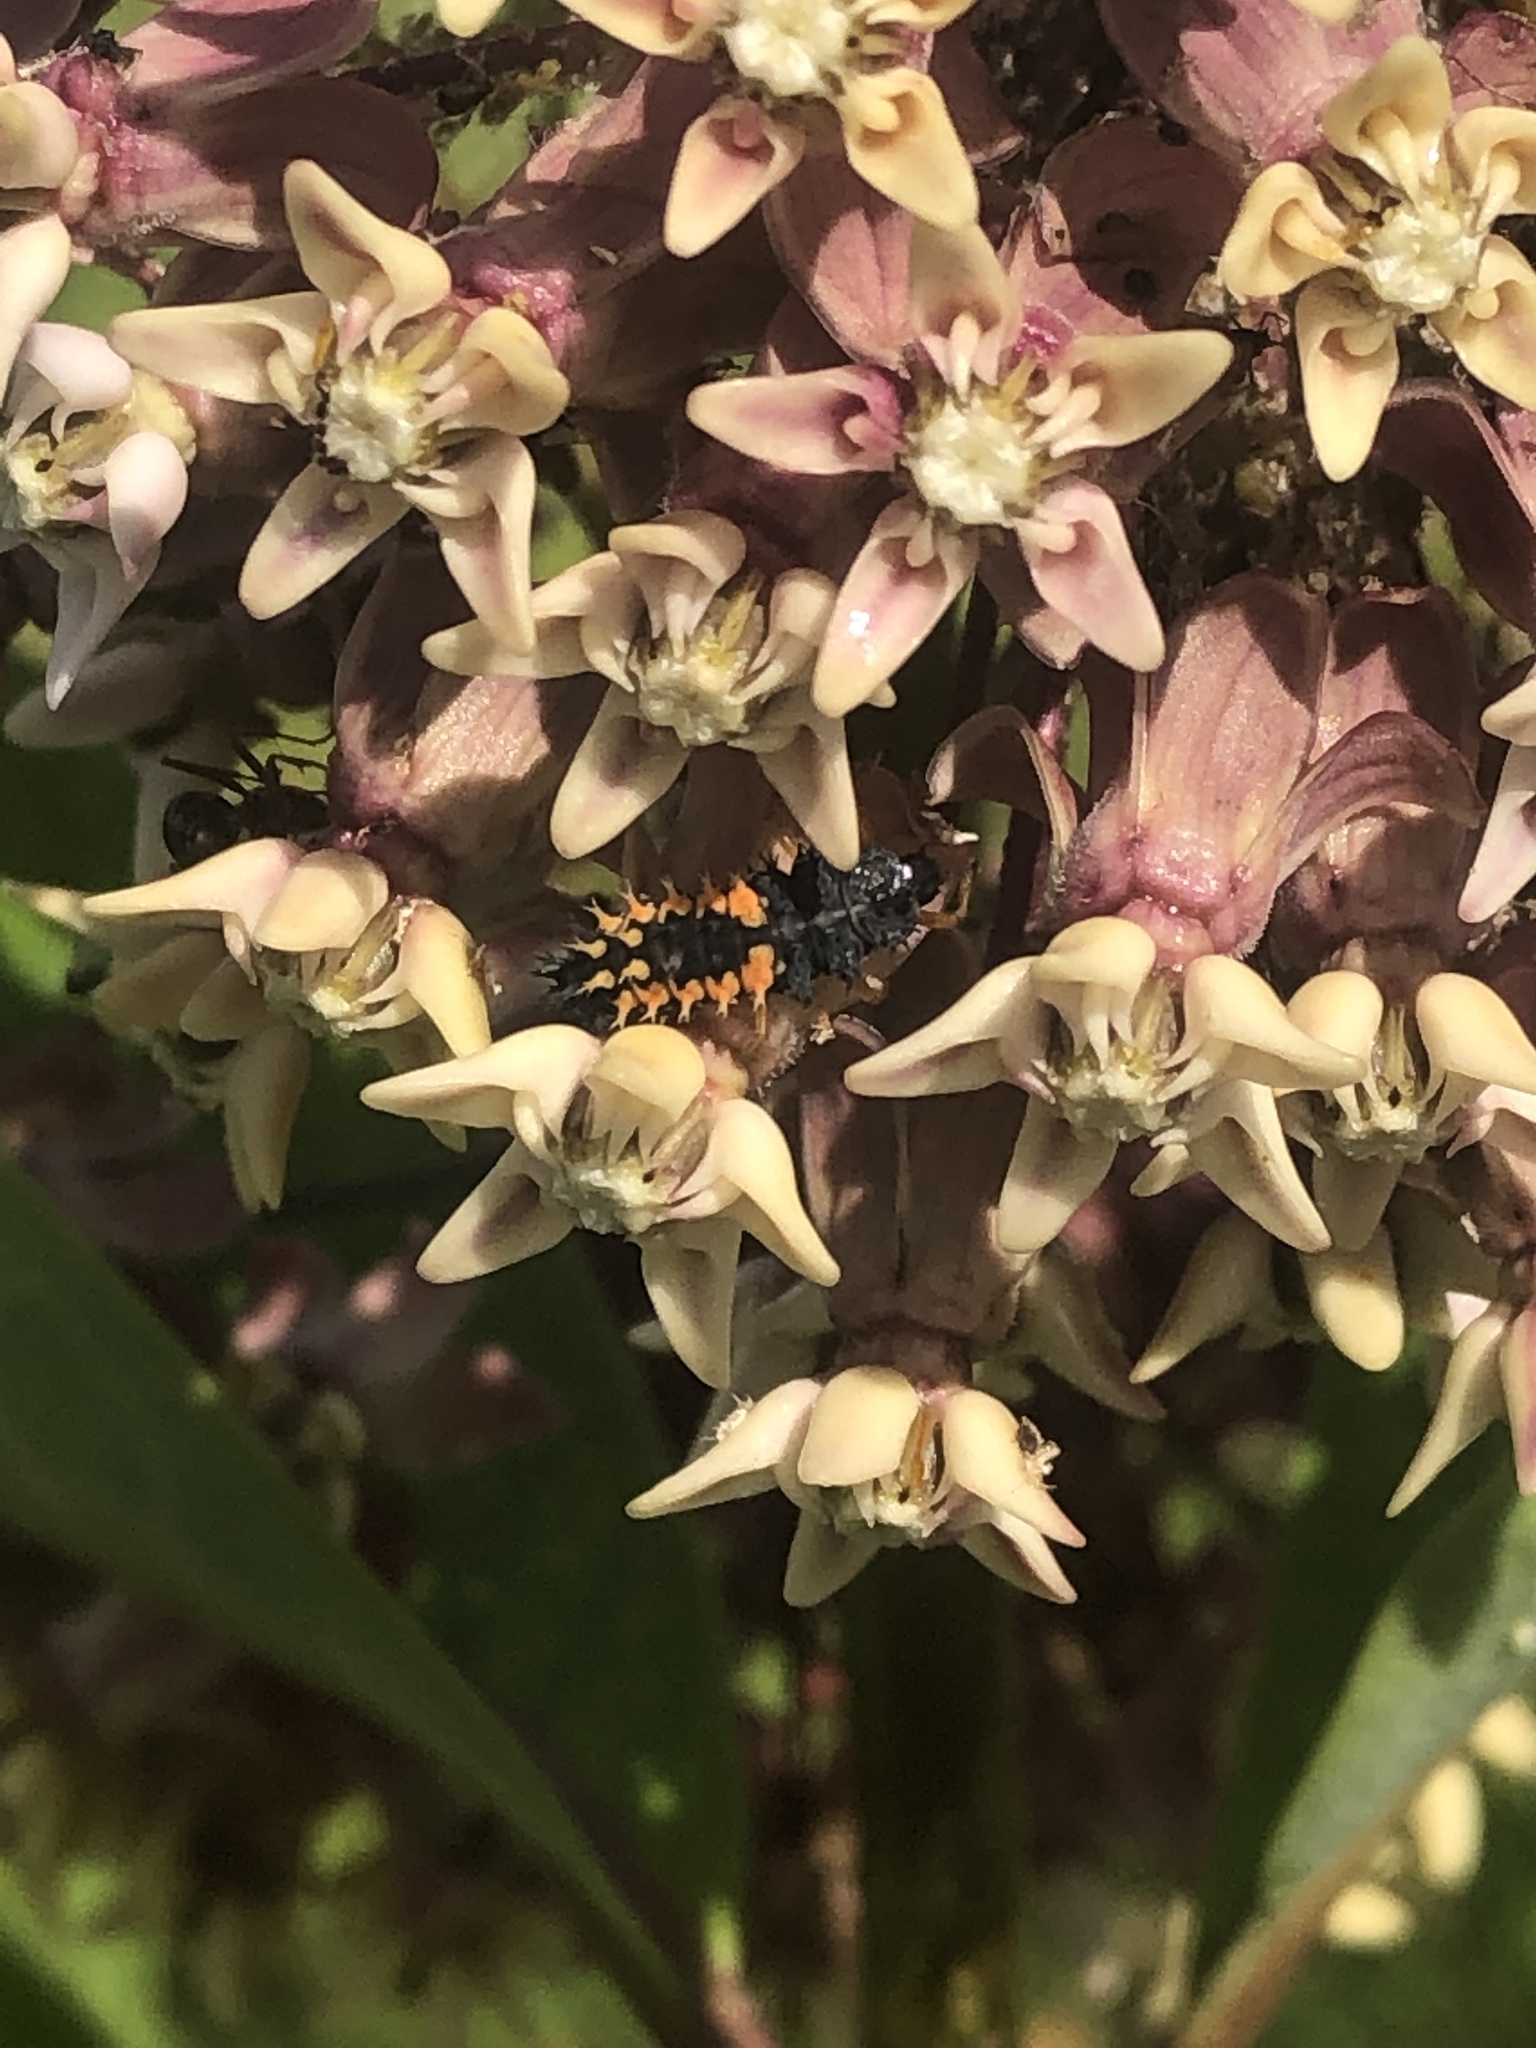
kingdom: Animalia
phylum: Arthropoda
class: Insecta
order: Coleoptera
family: Coccinellidae
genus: Harmonia
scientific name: Harmonia axyridis
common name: Harlequin ladybird
